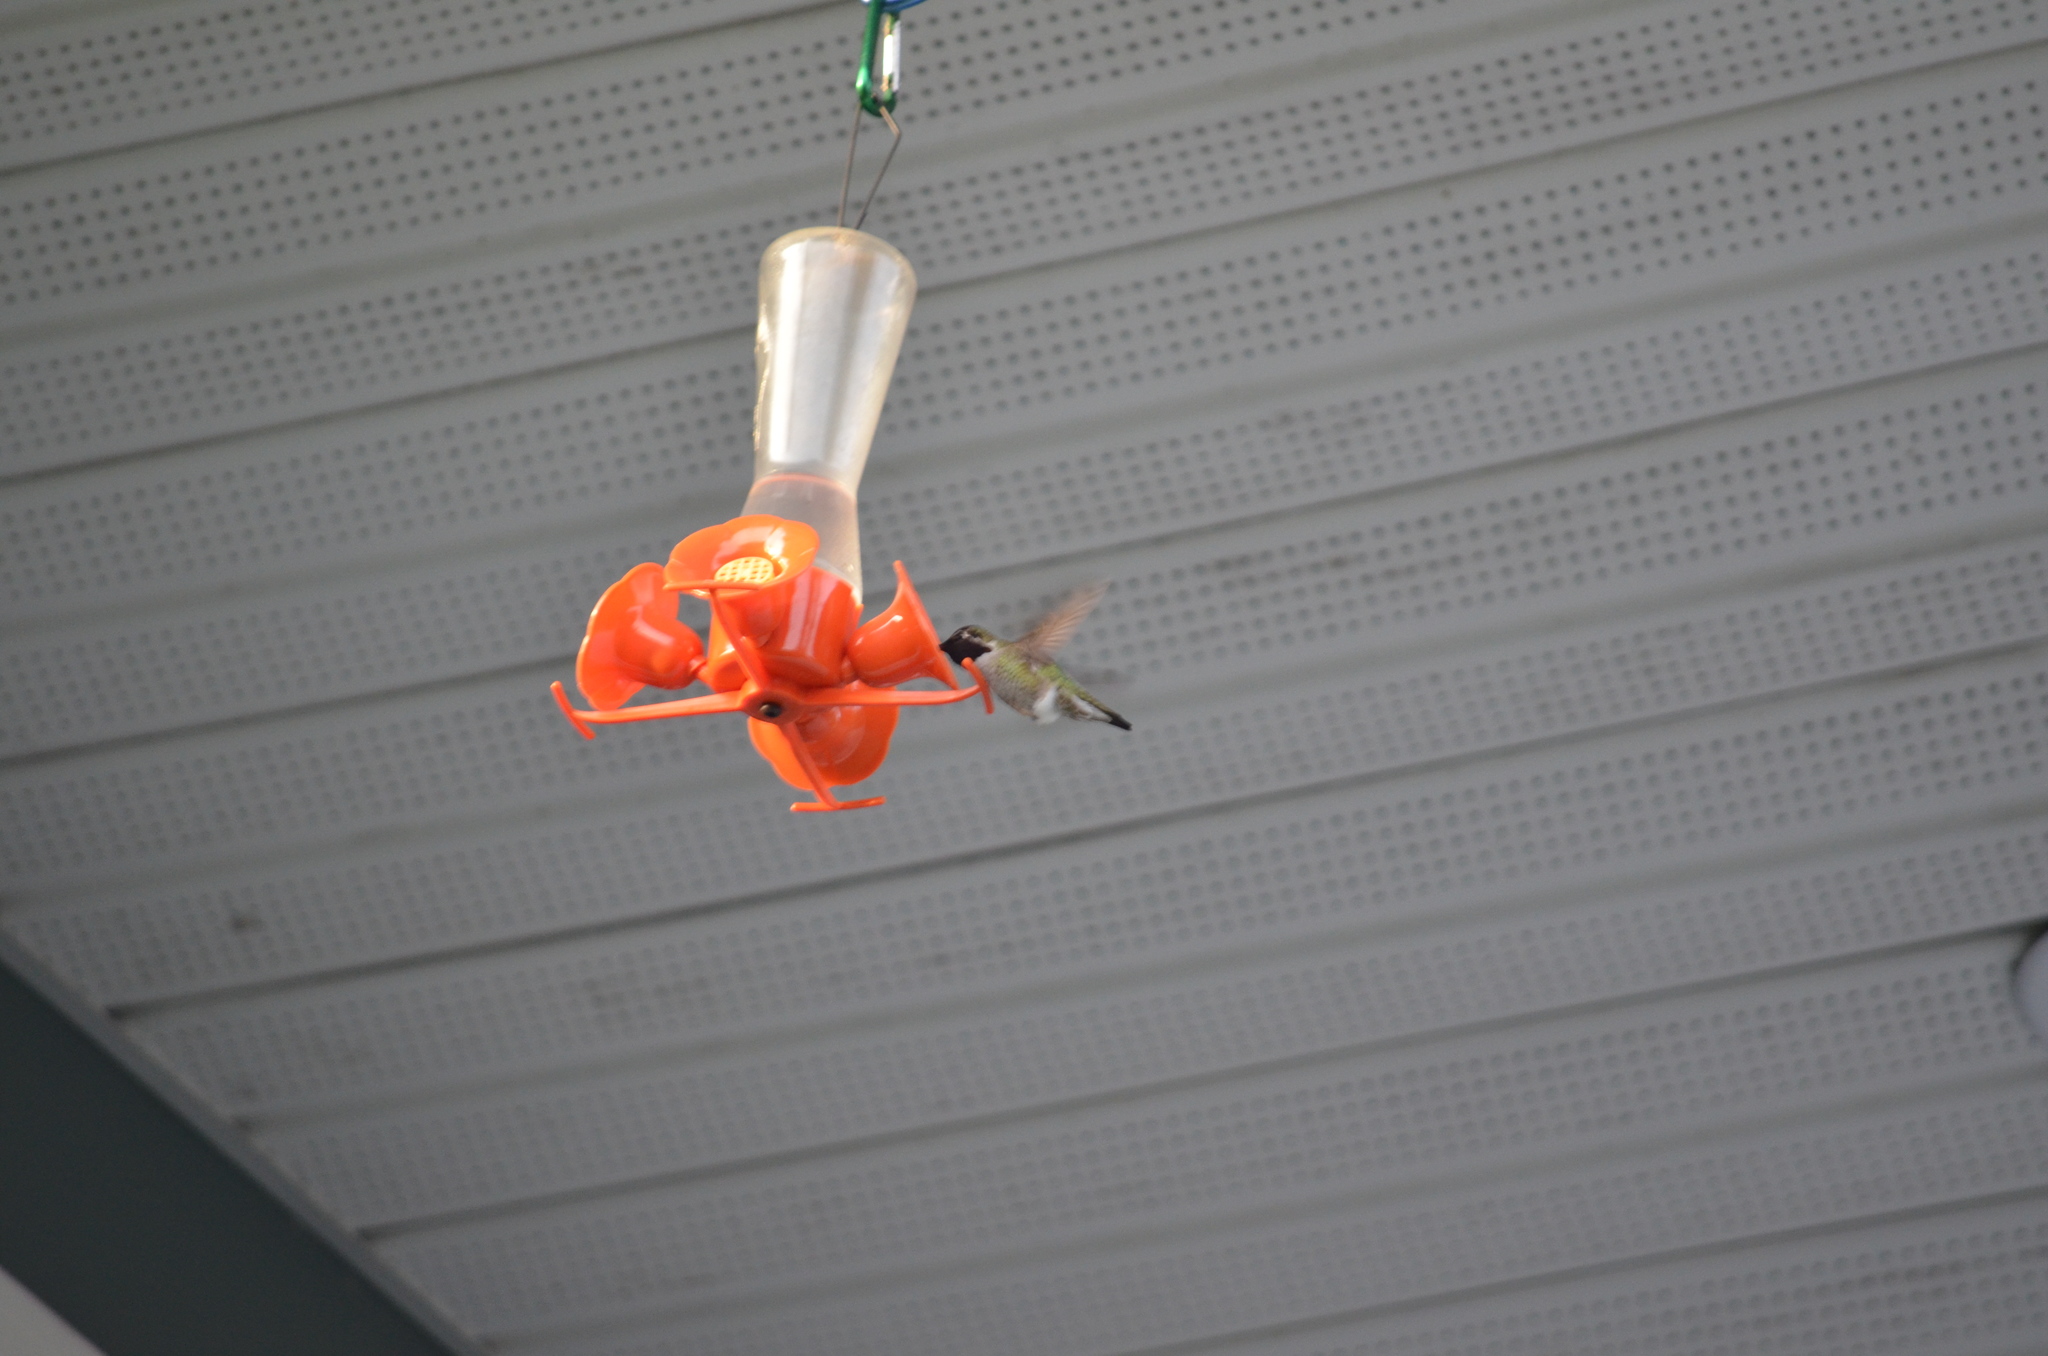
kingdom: Animalia
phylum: Chordata
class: Aves
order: Apodiformes
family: Trochilidae
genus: Calypte
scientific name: Calypte anna
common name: Anna's hummingbird
